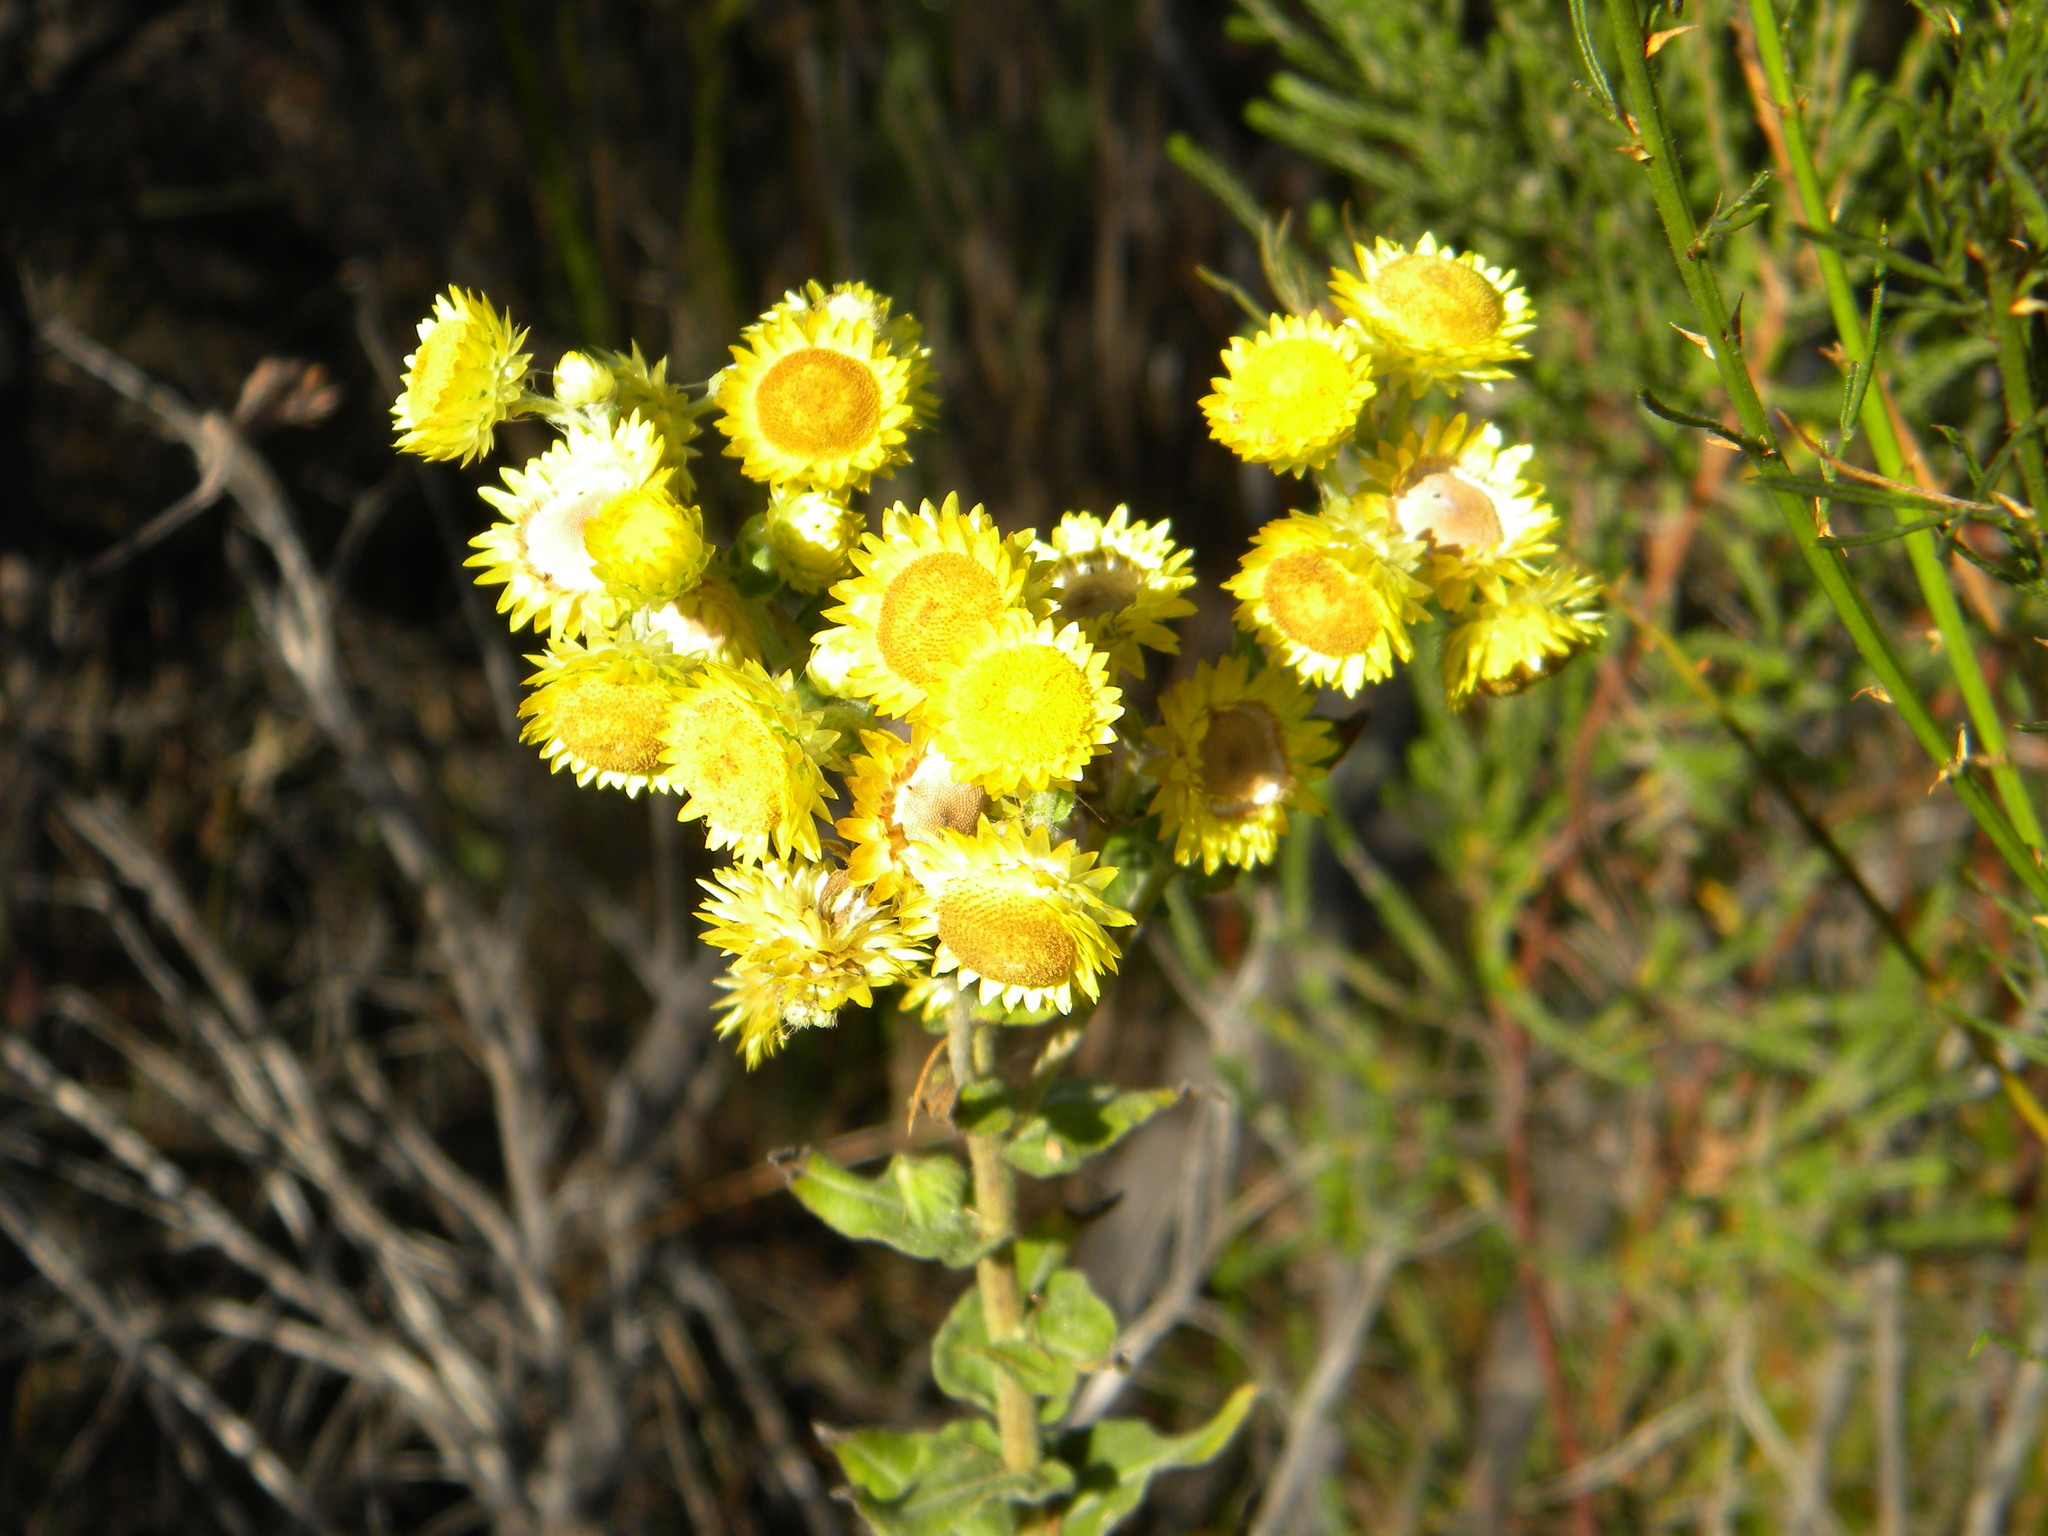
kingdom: Plantae
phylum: Tracheophyta
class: Magnoliopsida
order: Asterales
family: Asteraceae
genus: Helichrysum
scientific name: Helichrysum foetidum
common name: Stinking everlasting
